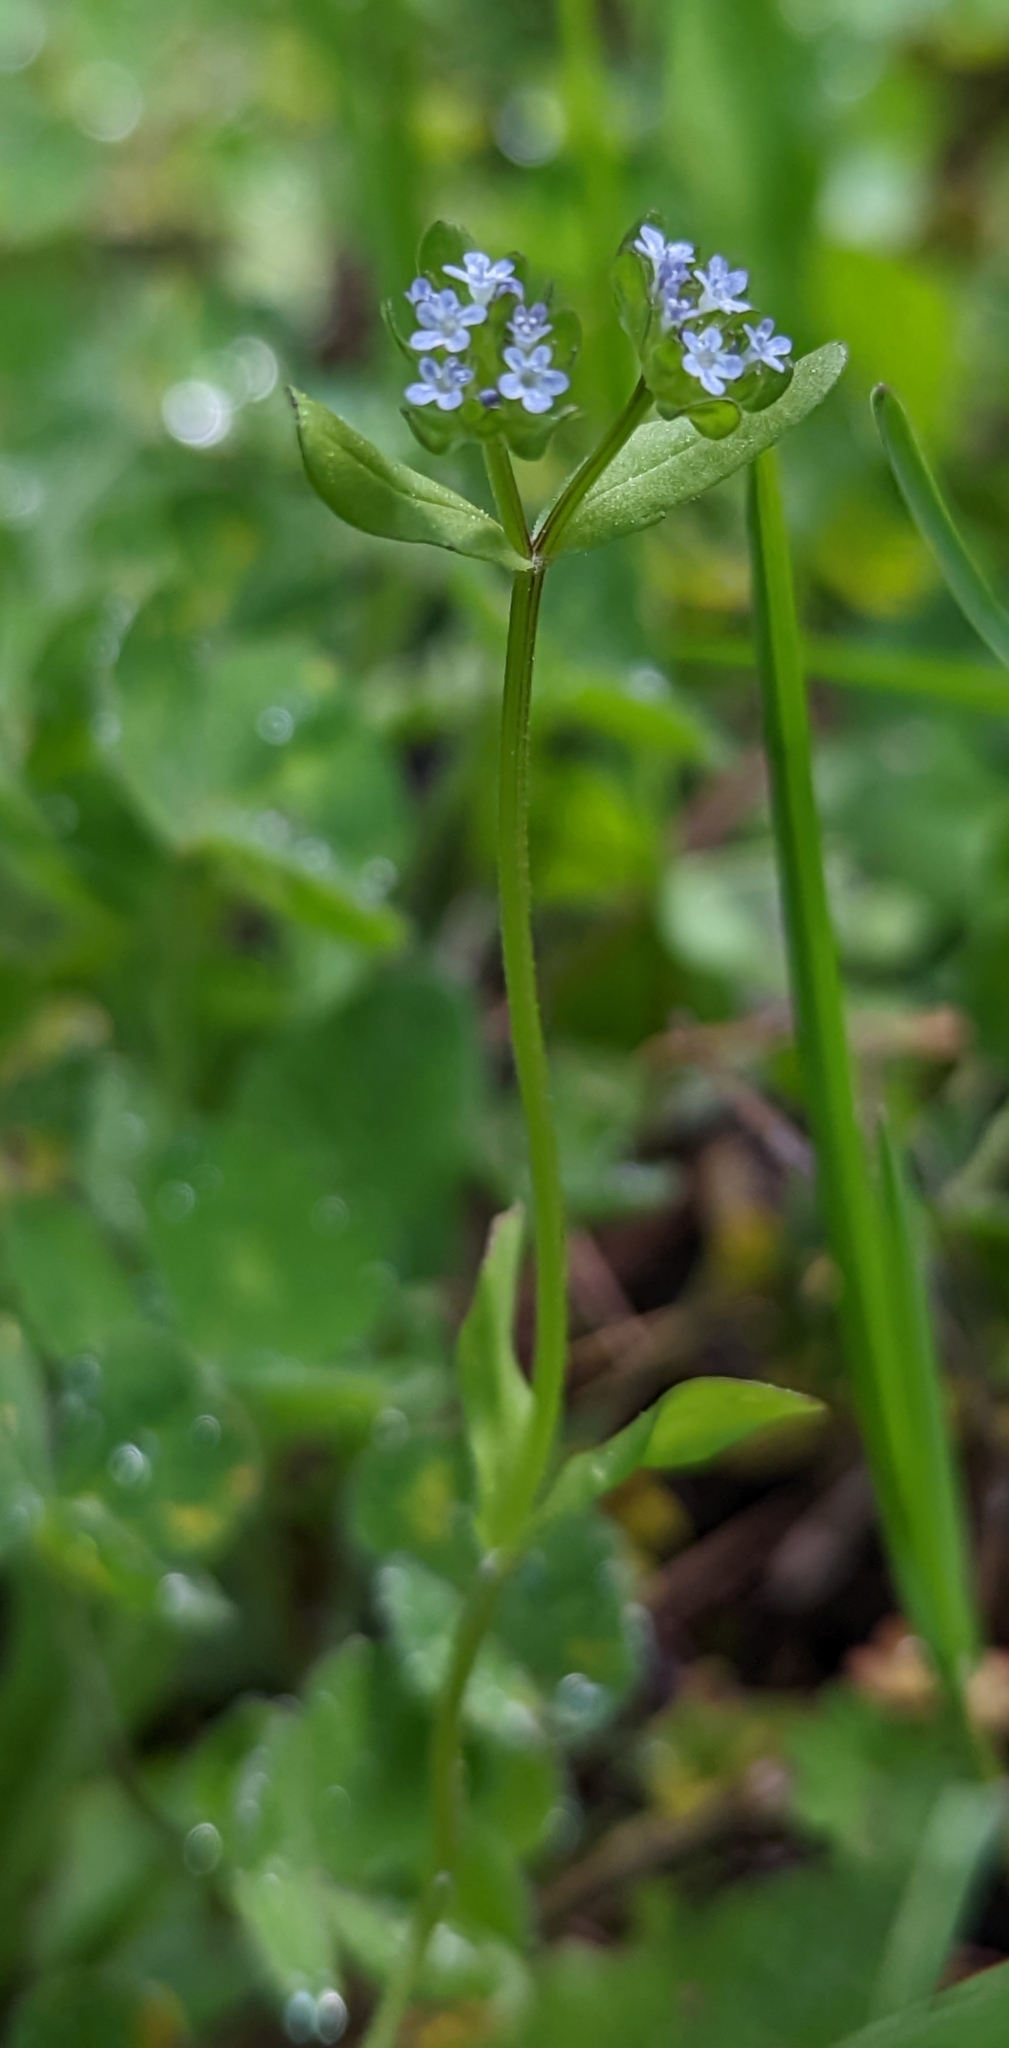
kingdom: Plantae
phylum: Tracheophyta
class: Magnoliopsida
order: Dipsacales
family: Caprifoliaceae
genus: Valerianella
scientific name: Valerianella locusta
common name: Common cornsalad
